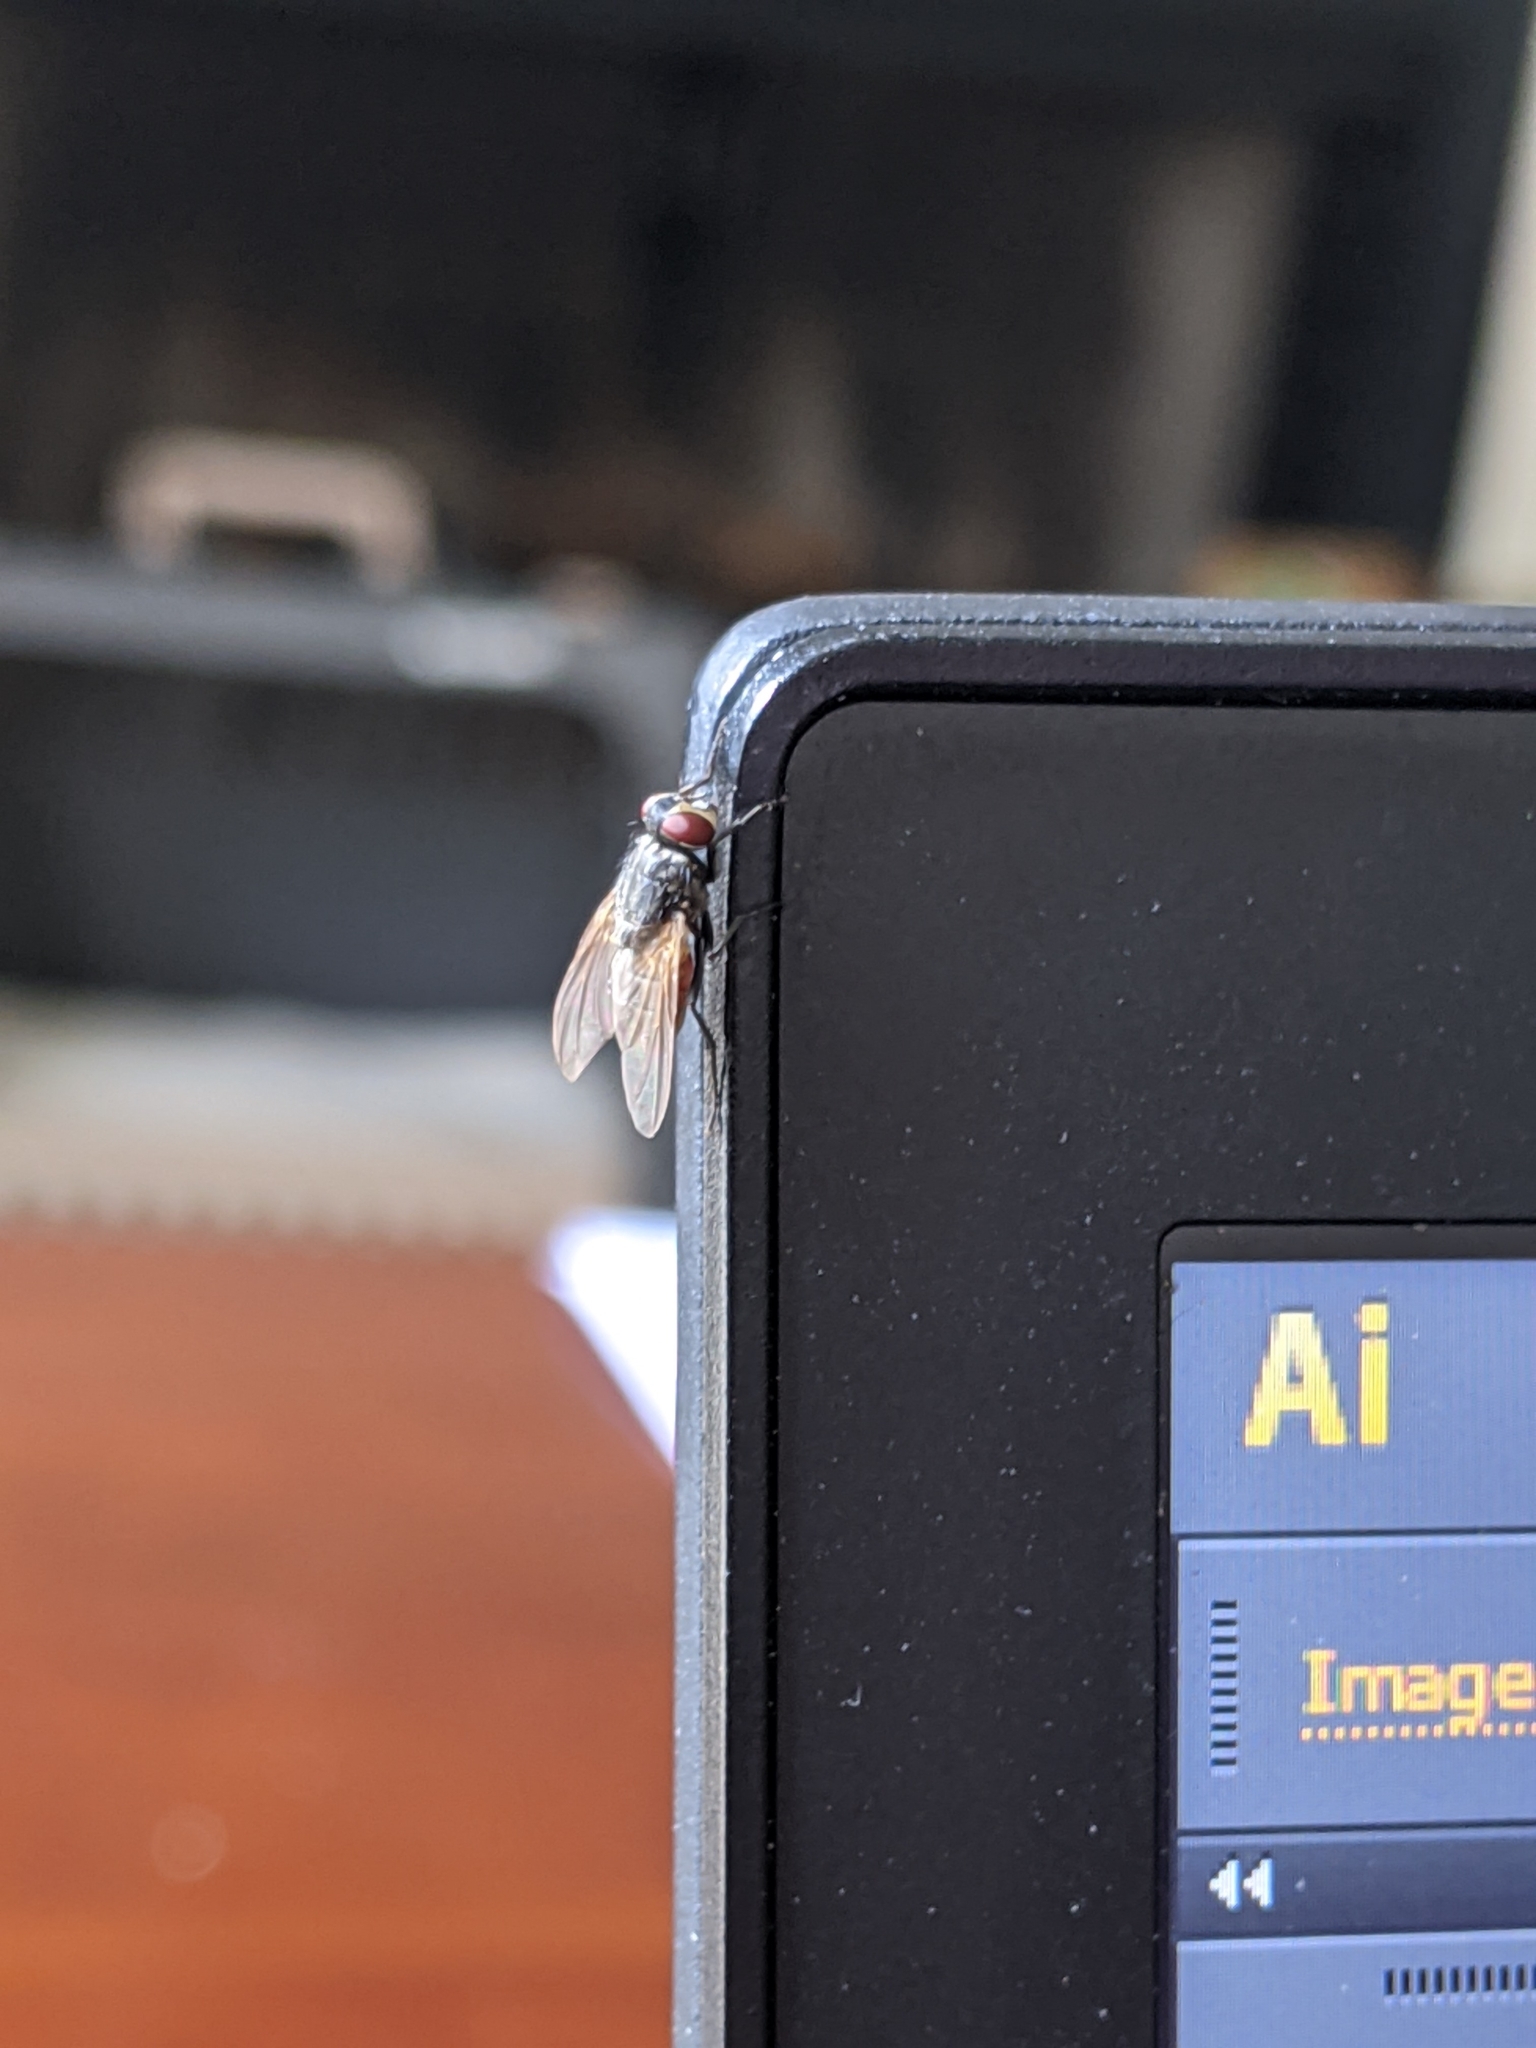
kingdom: Animalia
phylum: Arthropoda
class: Insecta
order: Diptera
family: Muscidae
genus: Musca
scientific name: Musca domestica
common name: House fly
